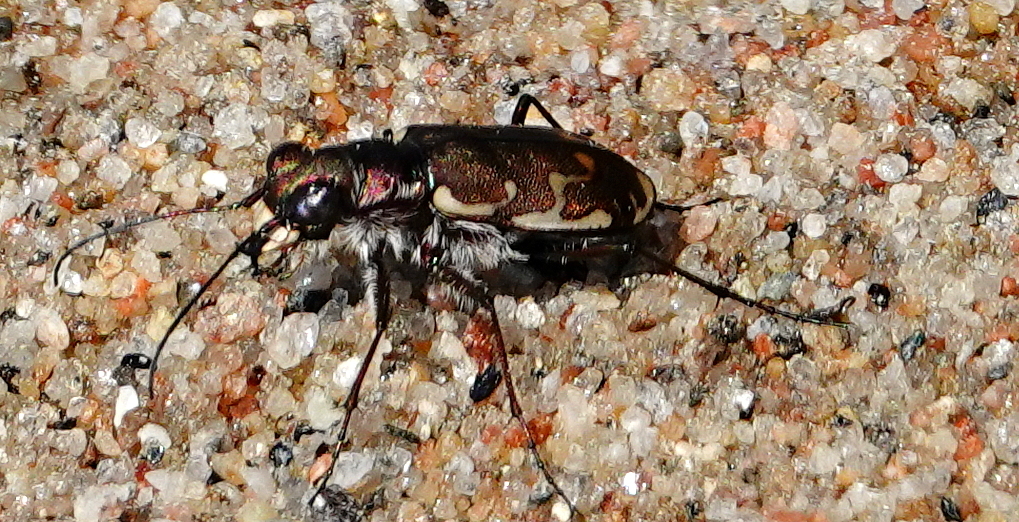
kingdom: Animalia
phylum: Arthropoda
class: Insecta
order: Coleoptera
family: Carabidae
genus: Cicindela
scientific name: Cicindela repanda
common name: Bronzed tiger beetle
